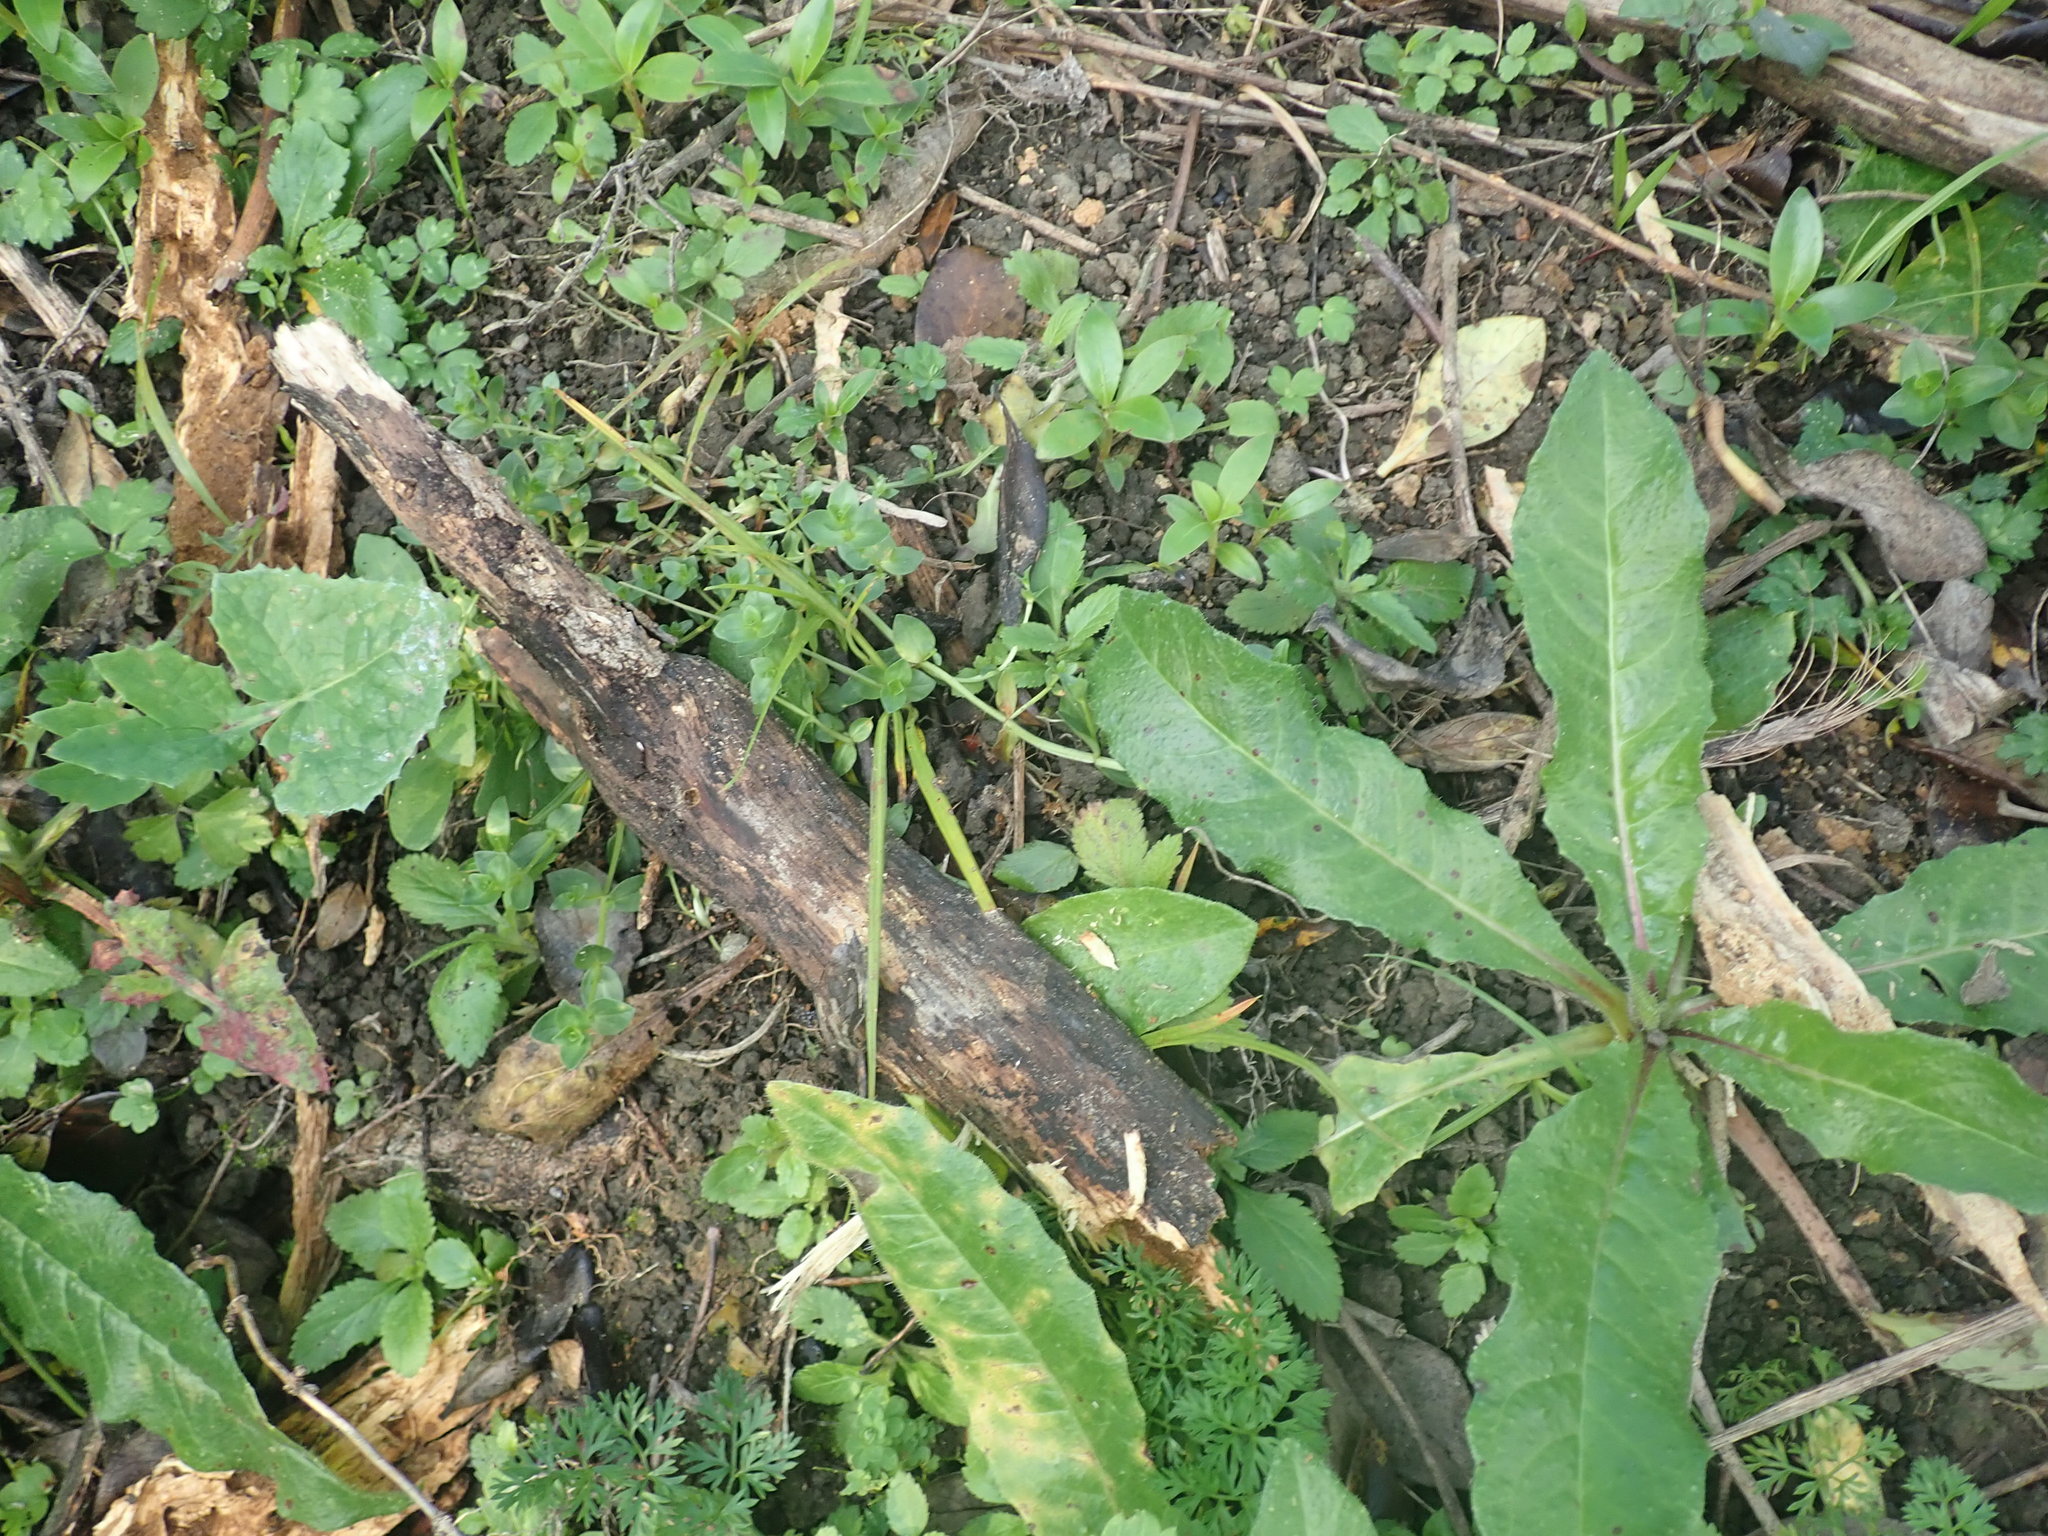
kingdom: Plantae
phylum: Tracheophyta
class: Liliopsida
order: Asparagales
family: Asparagaceae
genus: Cordyline
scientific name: Cordyline australis
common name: Cabbage-palm
